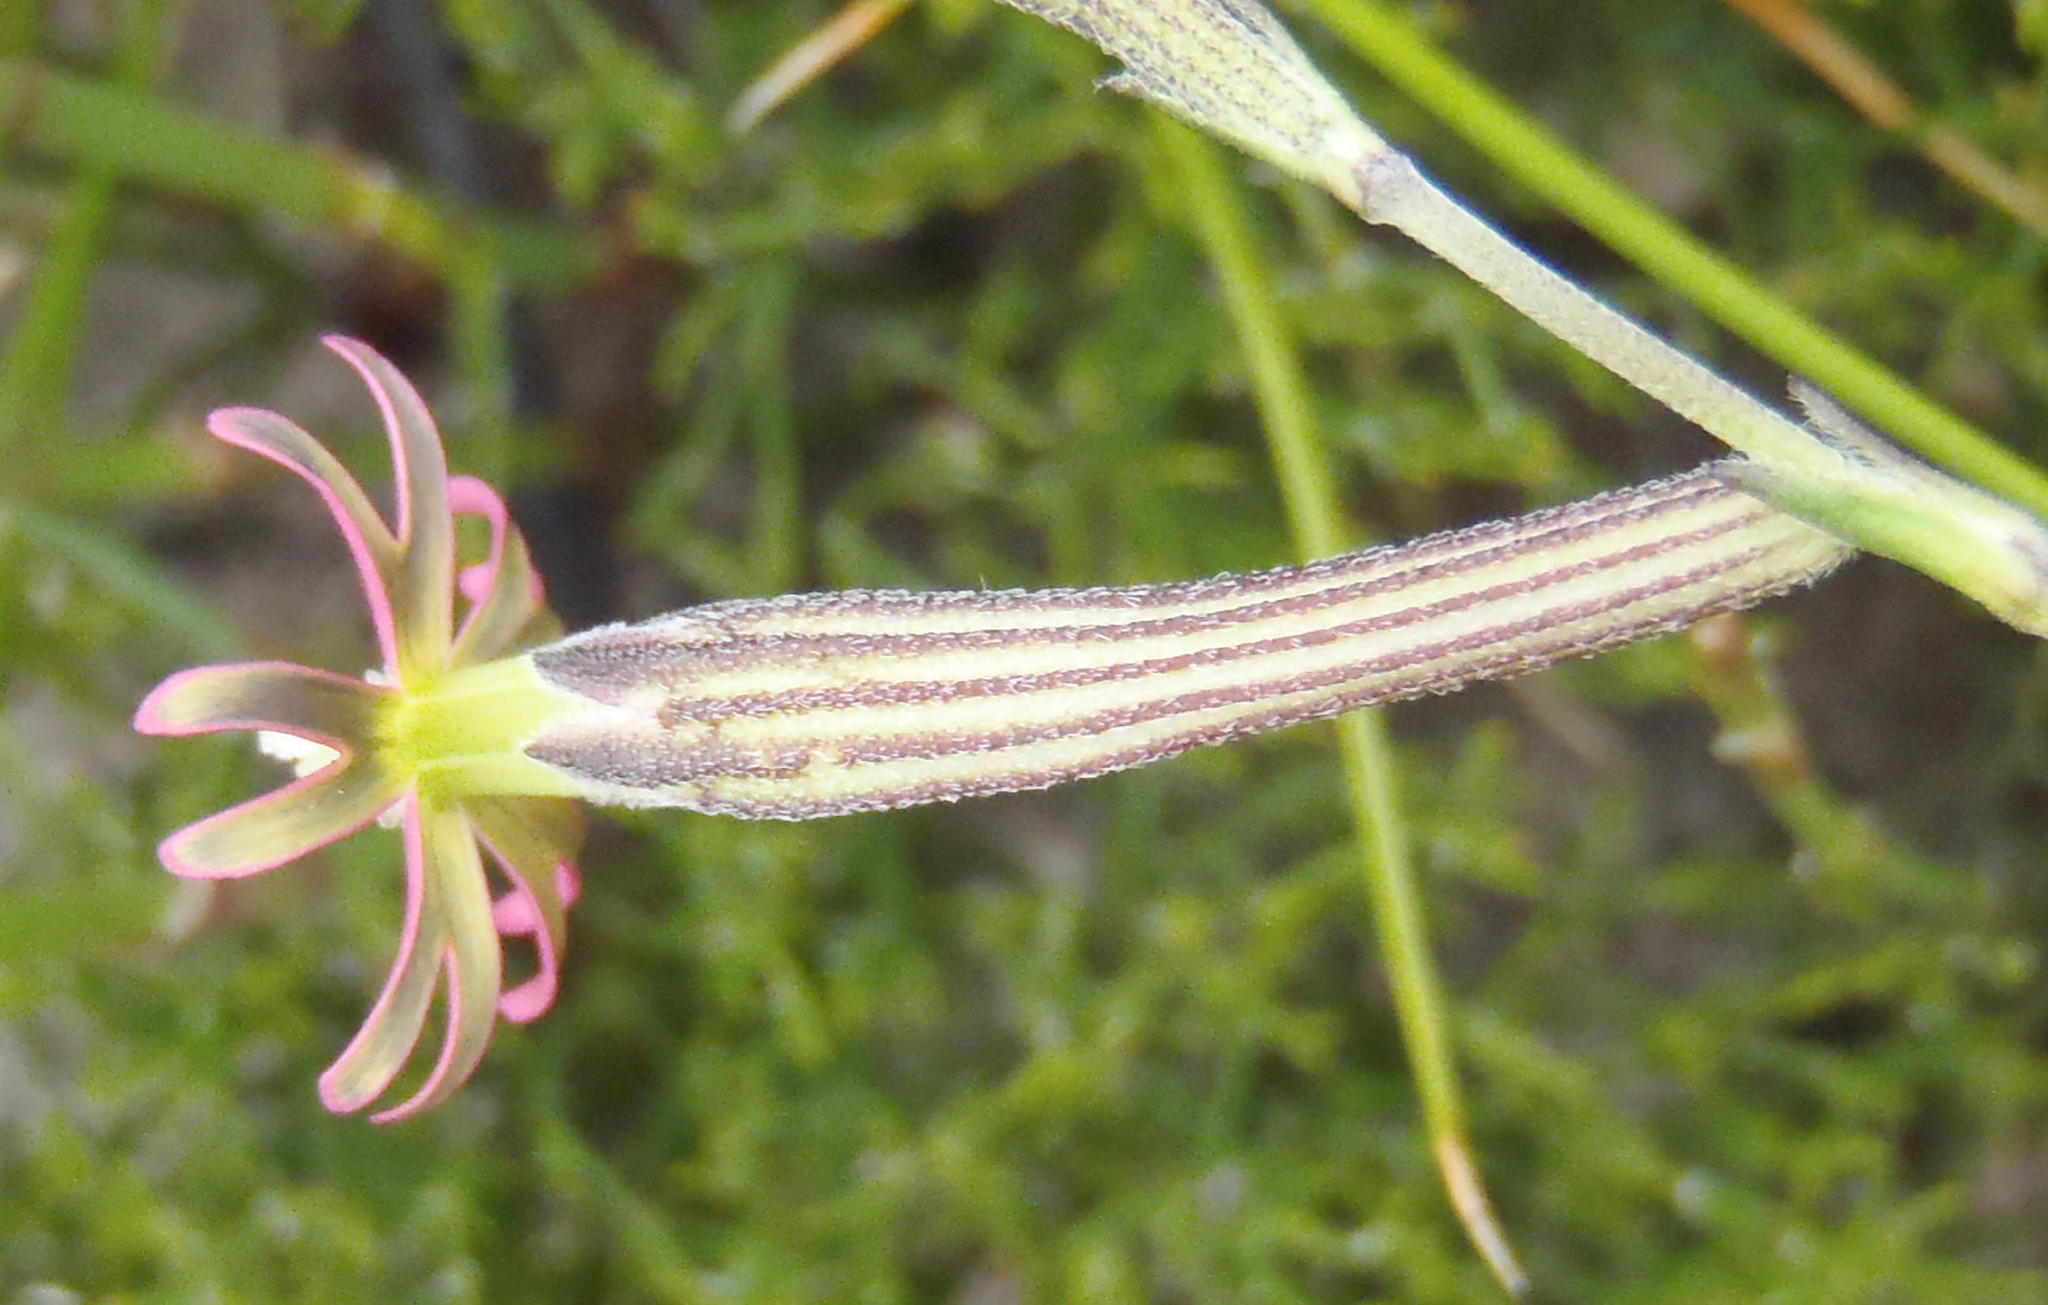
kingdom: Plantae
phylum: Tracheophyta
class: Magnoliopsida
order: Caryophyllales
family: Caryophyllaceae
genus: Silene
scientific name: Silene burchellii
